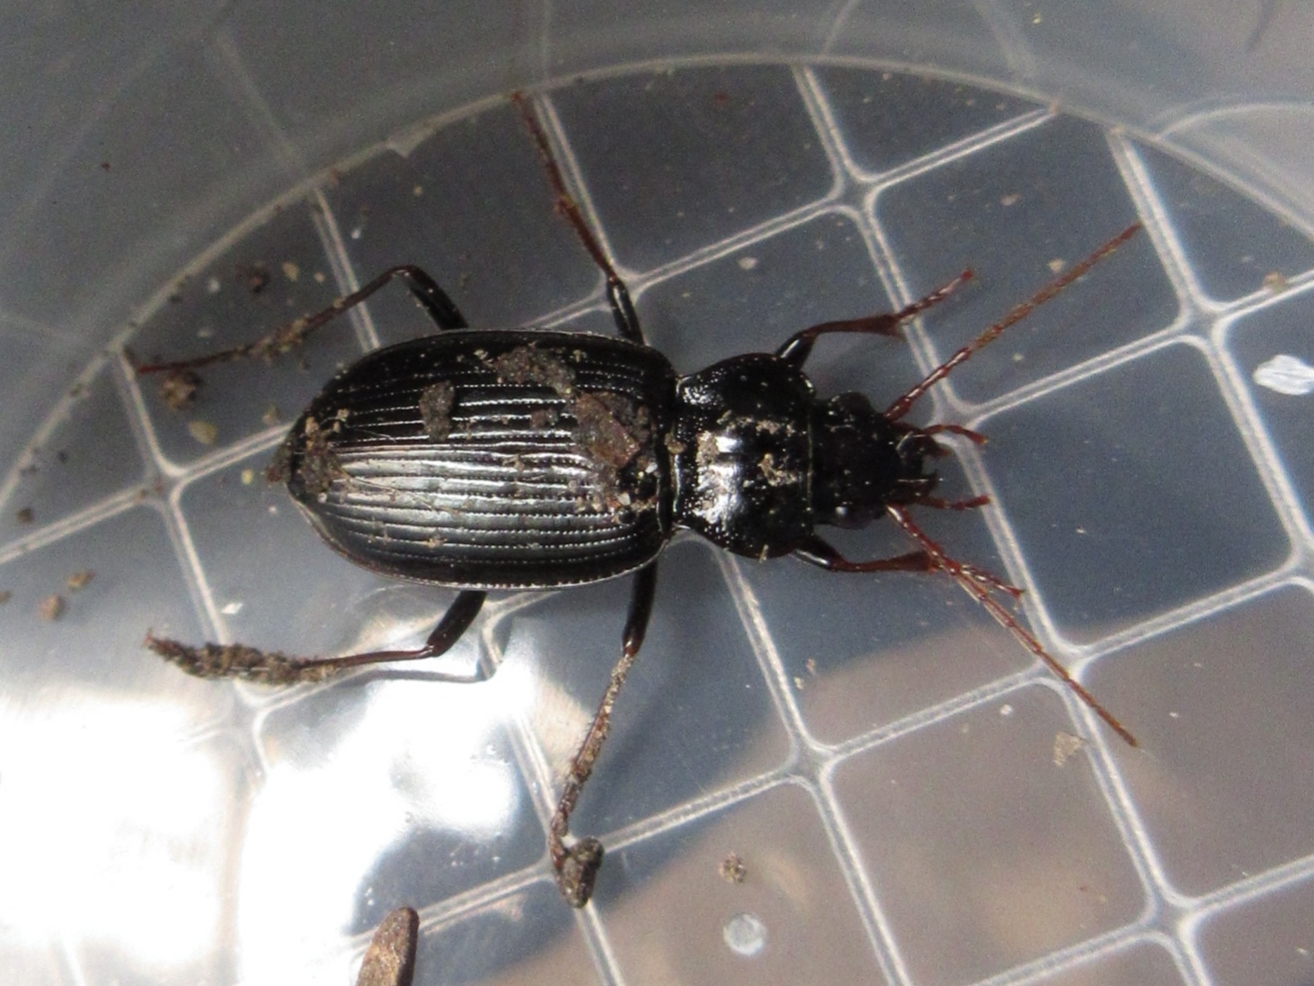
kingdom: Animalia
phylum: Arthropoda
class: Insecta
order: Coleoptera
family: Carabidae
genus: Nebria
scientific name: Nebria brevicollis
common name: Short-necked gazelle beetle
